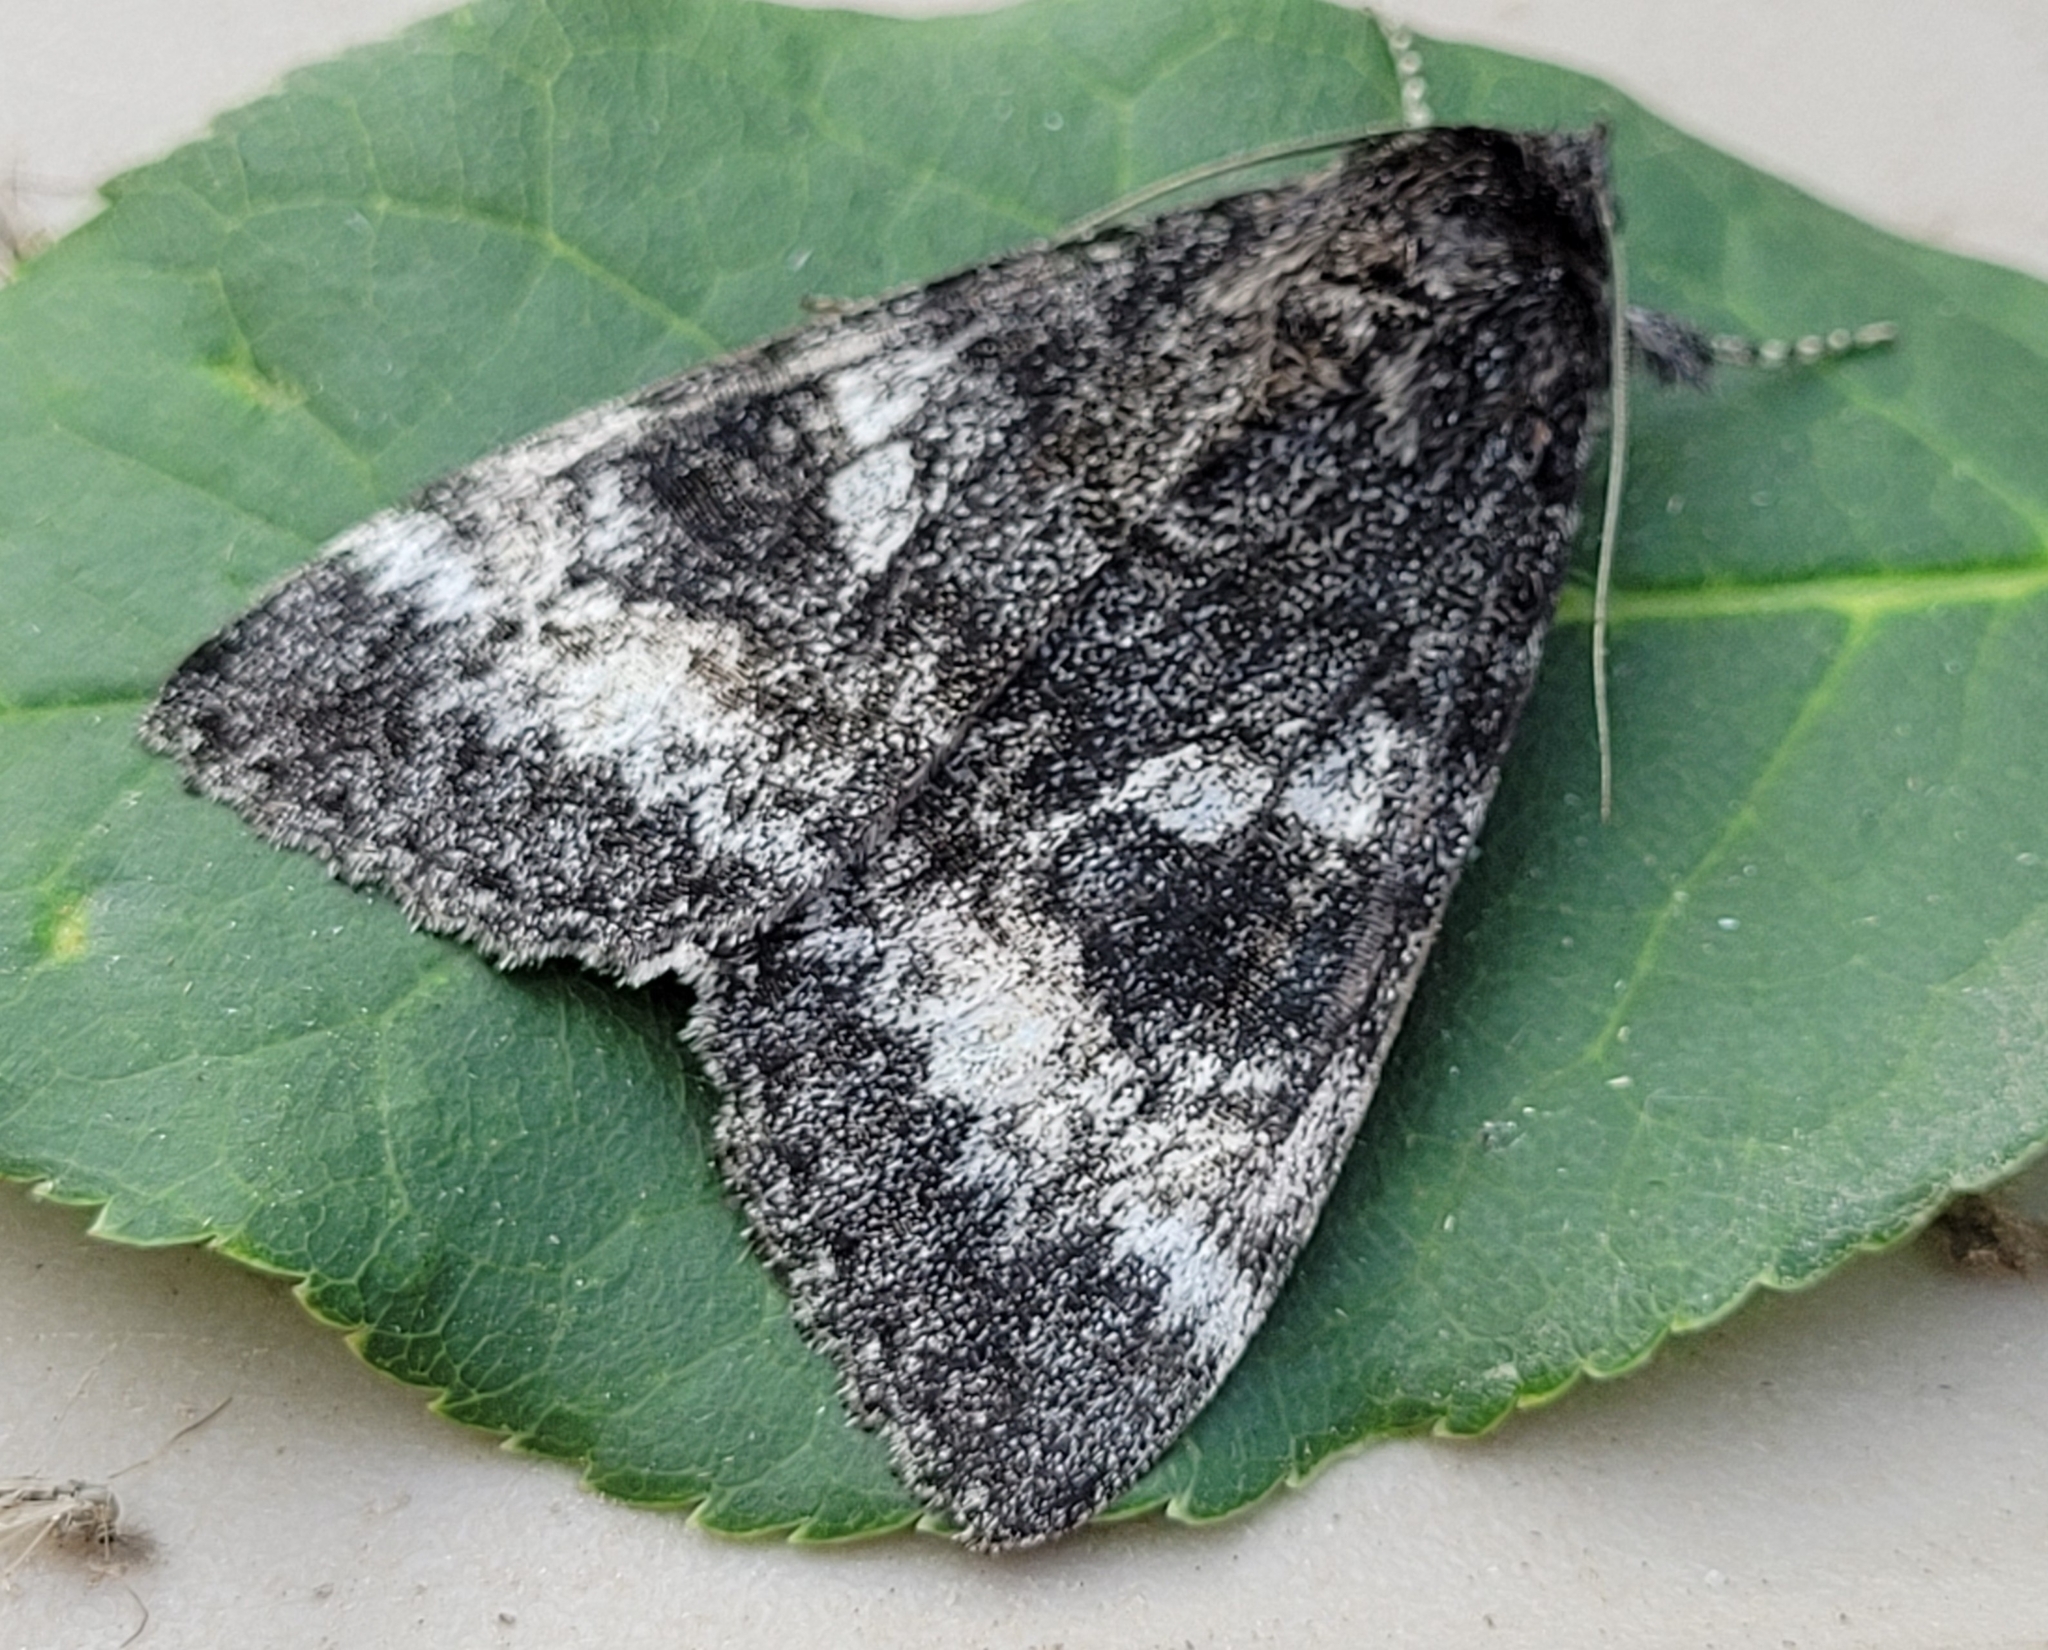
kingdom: Animalia
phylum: Arthropoda
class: Insecta
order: Lepidoptera
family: Erebidae
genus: Catocala
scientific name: Catocala briseis
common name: Briseis underwing
